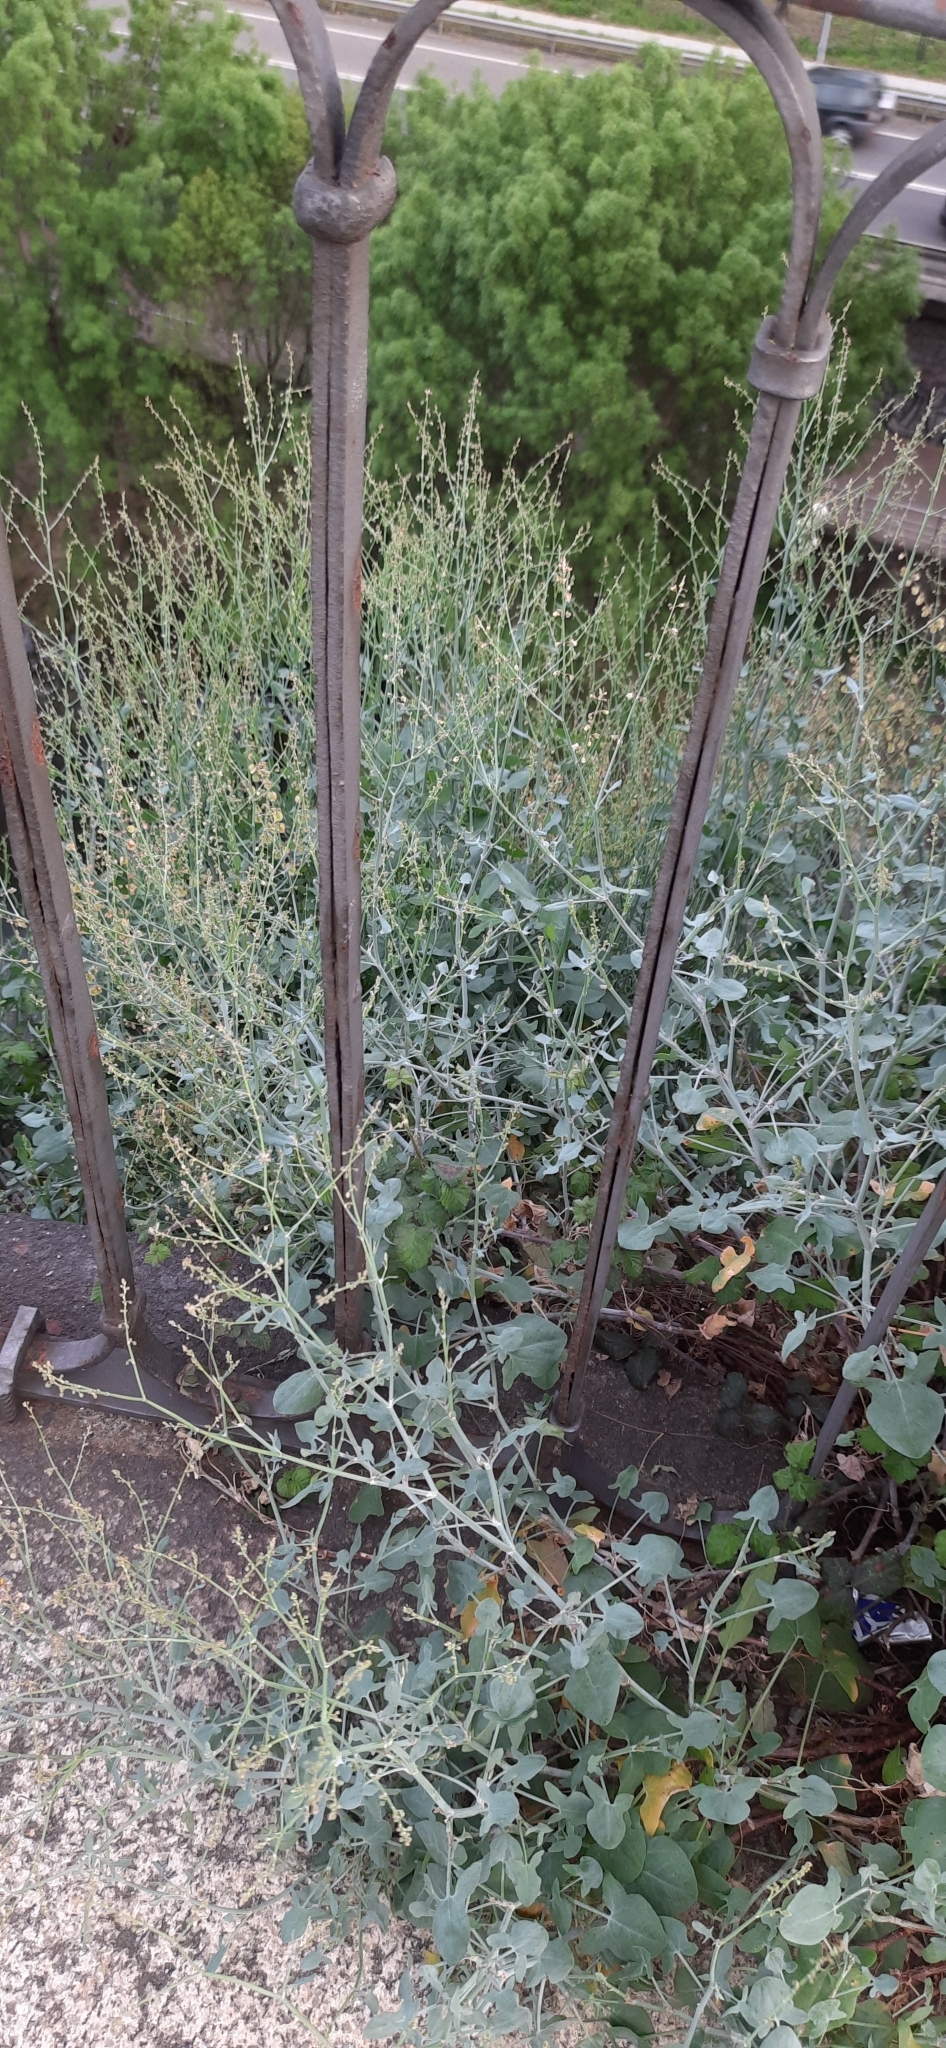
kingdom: Plantae
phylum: Tracheophyta
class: Magnoliopsida
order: Caryophyllales
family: Polygonaceae
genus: Rumex
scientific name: Rumex induratus
